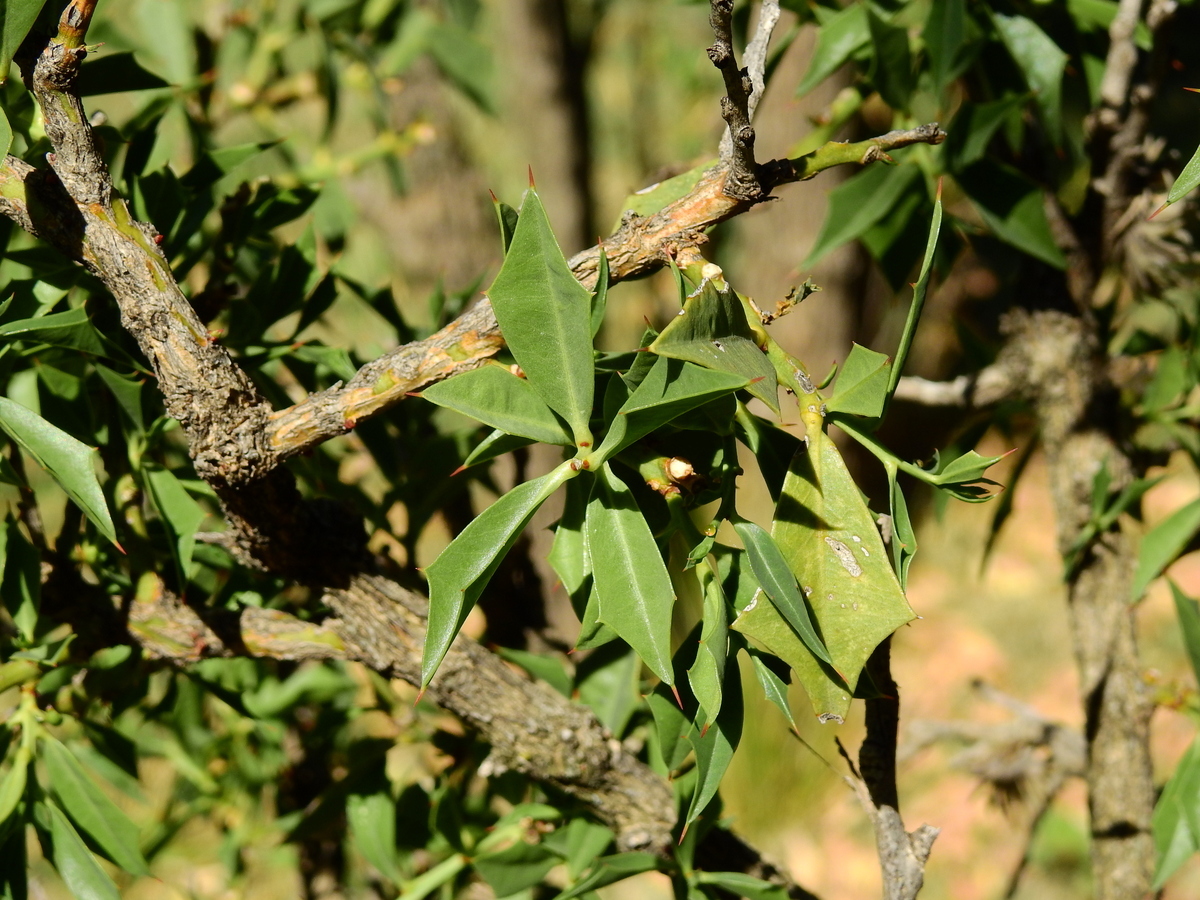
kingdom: Plantae
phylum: Tracheophyta
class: Magnoliopsida
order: Santalales
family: Cervantesiaceae
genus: Jodina
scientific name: Jodina rhombifolia
